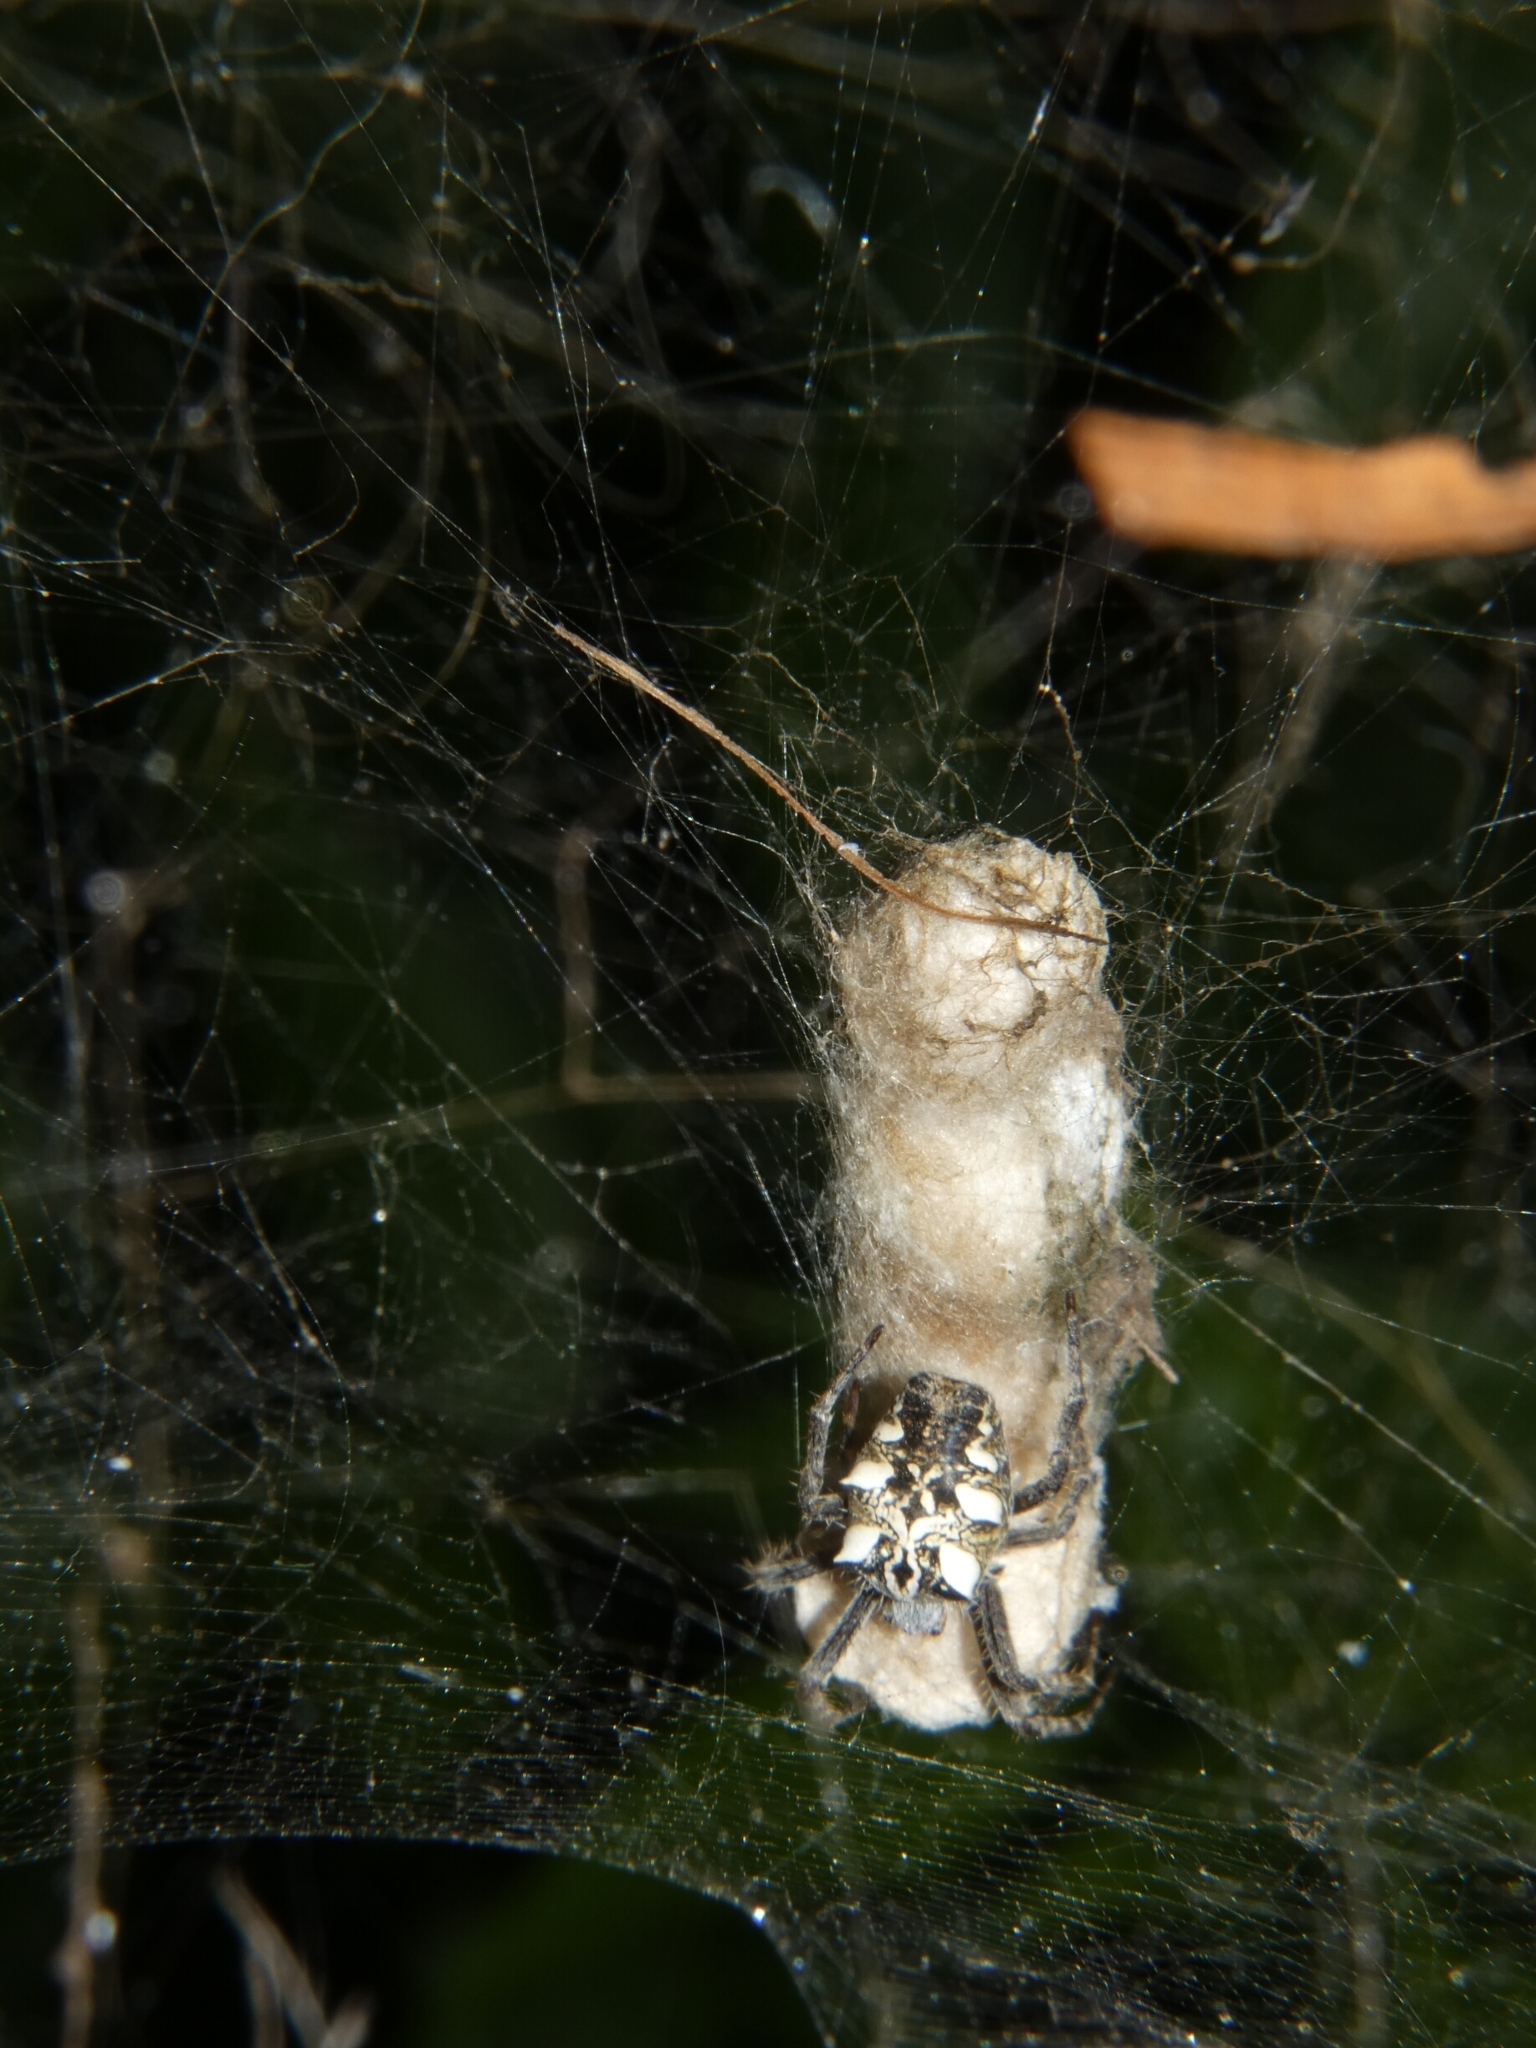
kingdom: Animalia
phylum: Arthropoda
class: Arachnida
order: Araneae
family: Araneidae
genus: Cyrtophora
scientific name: Cyrtophora citricola
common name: Orb weavers
